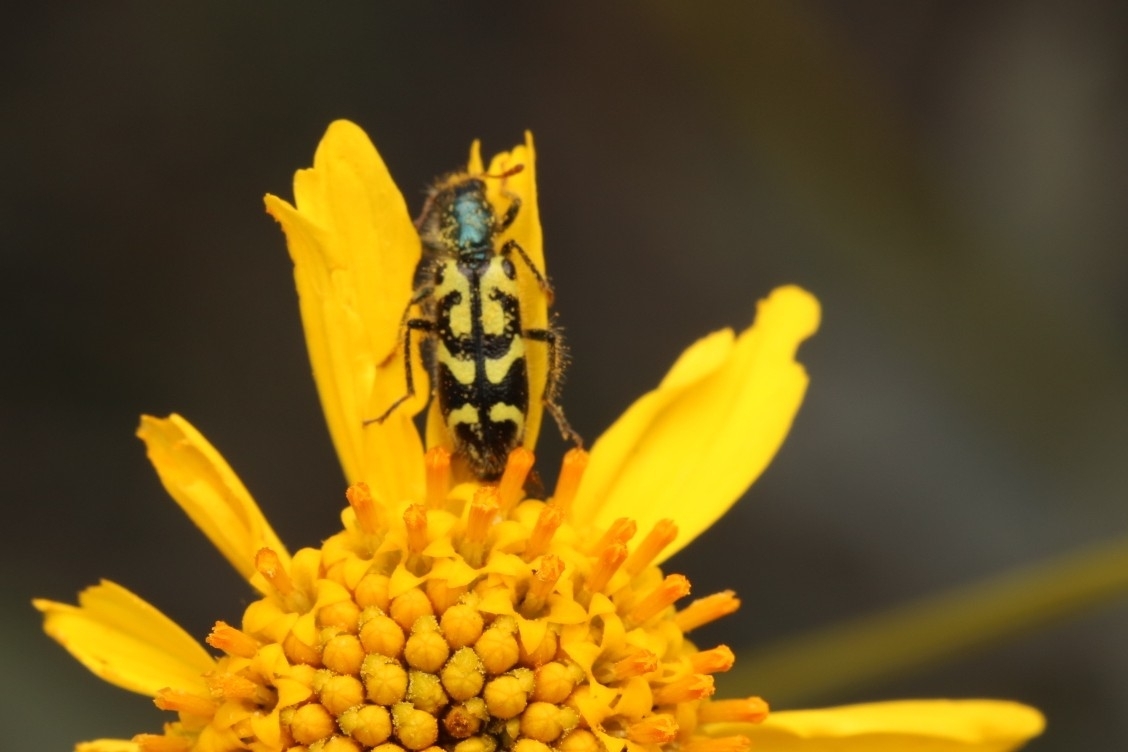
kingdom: Animalia
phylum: Arthropoda
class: Insecta
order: Coleoptera
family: Cleridae
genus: Trichodes
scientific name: Trichodes ornatus
